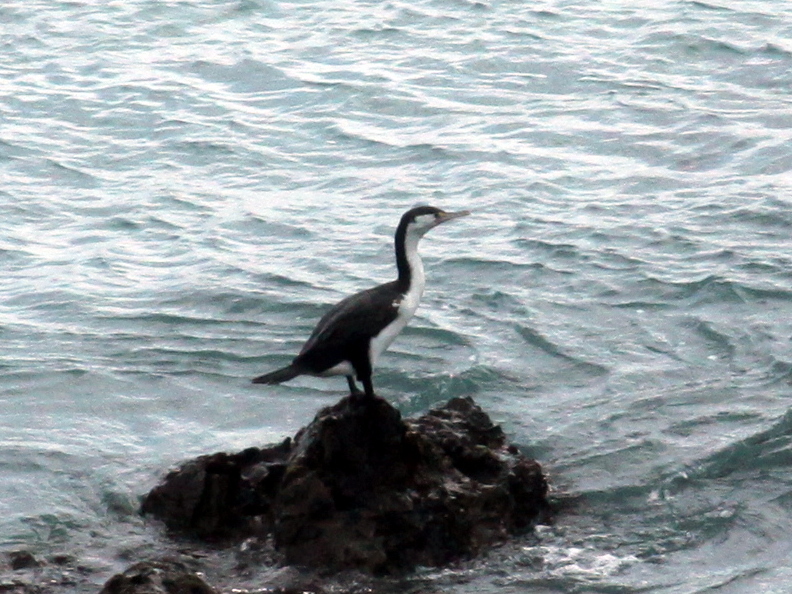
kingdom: Animalia
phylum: Chordata
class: Aves
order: Suliformes
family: Phalacrocoracidae
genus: Phalacrocorax
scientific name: Phalacrocorax varius
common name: Pied cormorant
